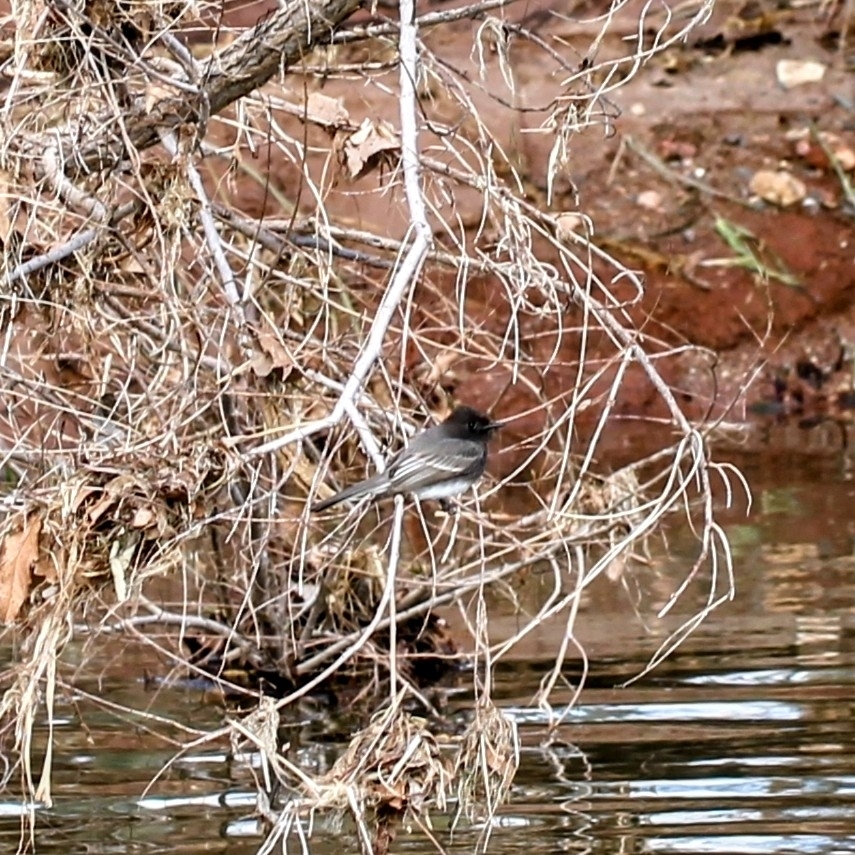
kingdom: Animalia
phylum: Chordata
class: Aves
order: Passeriformes
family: Tyrannidae
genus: Sayornis
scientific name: Sayornis nigricans
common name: Black phoebe
